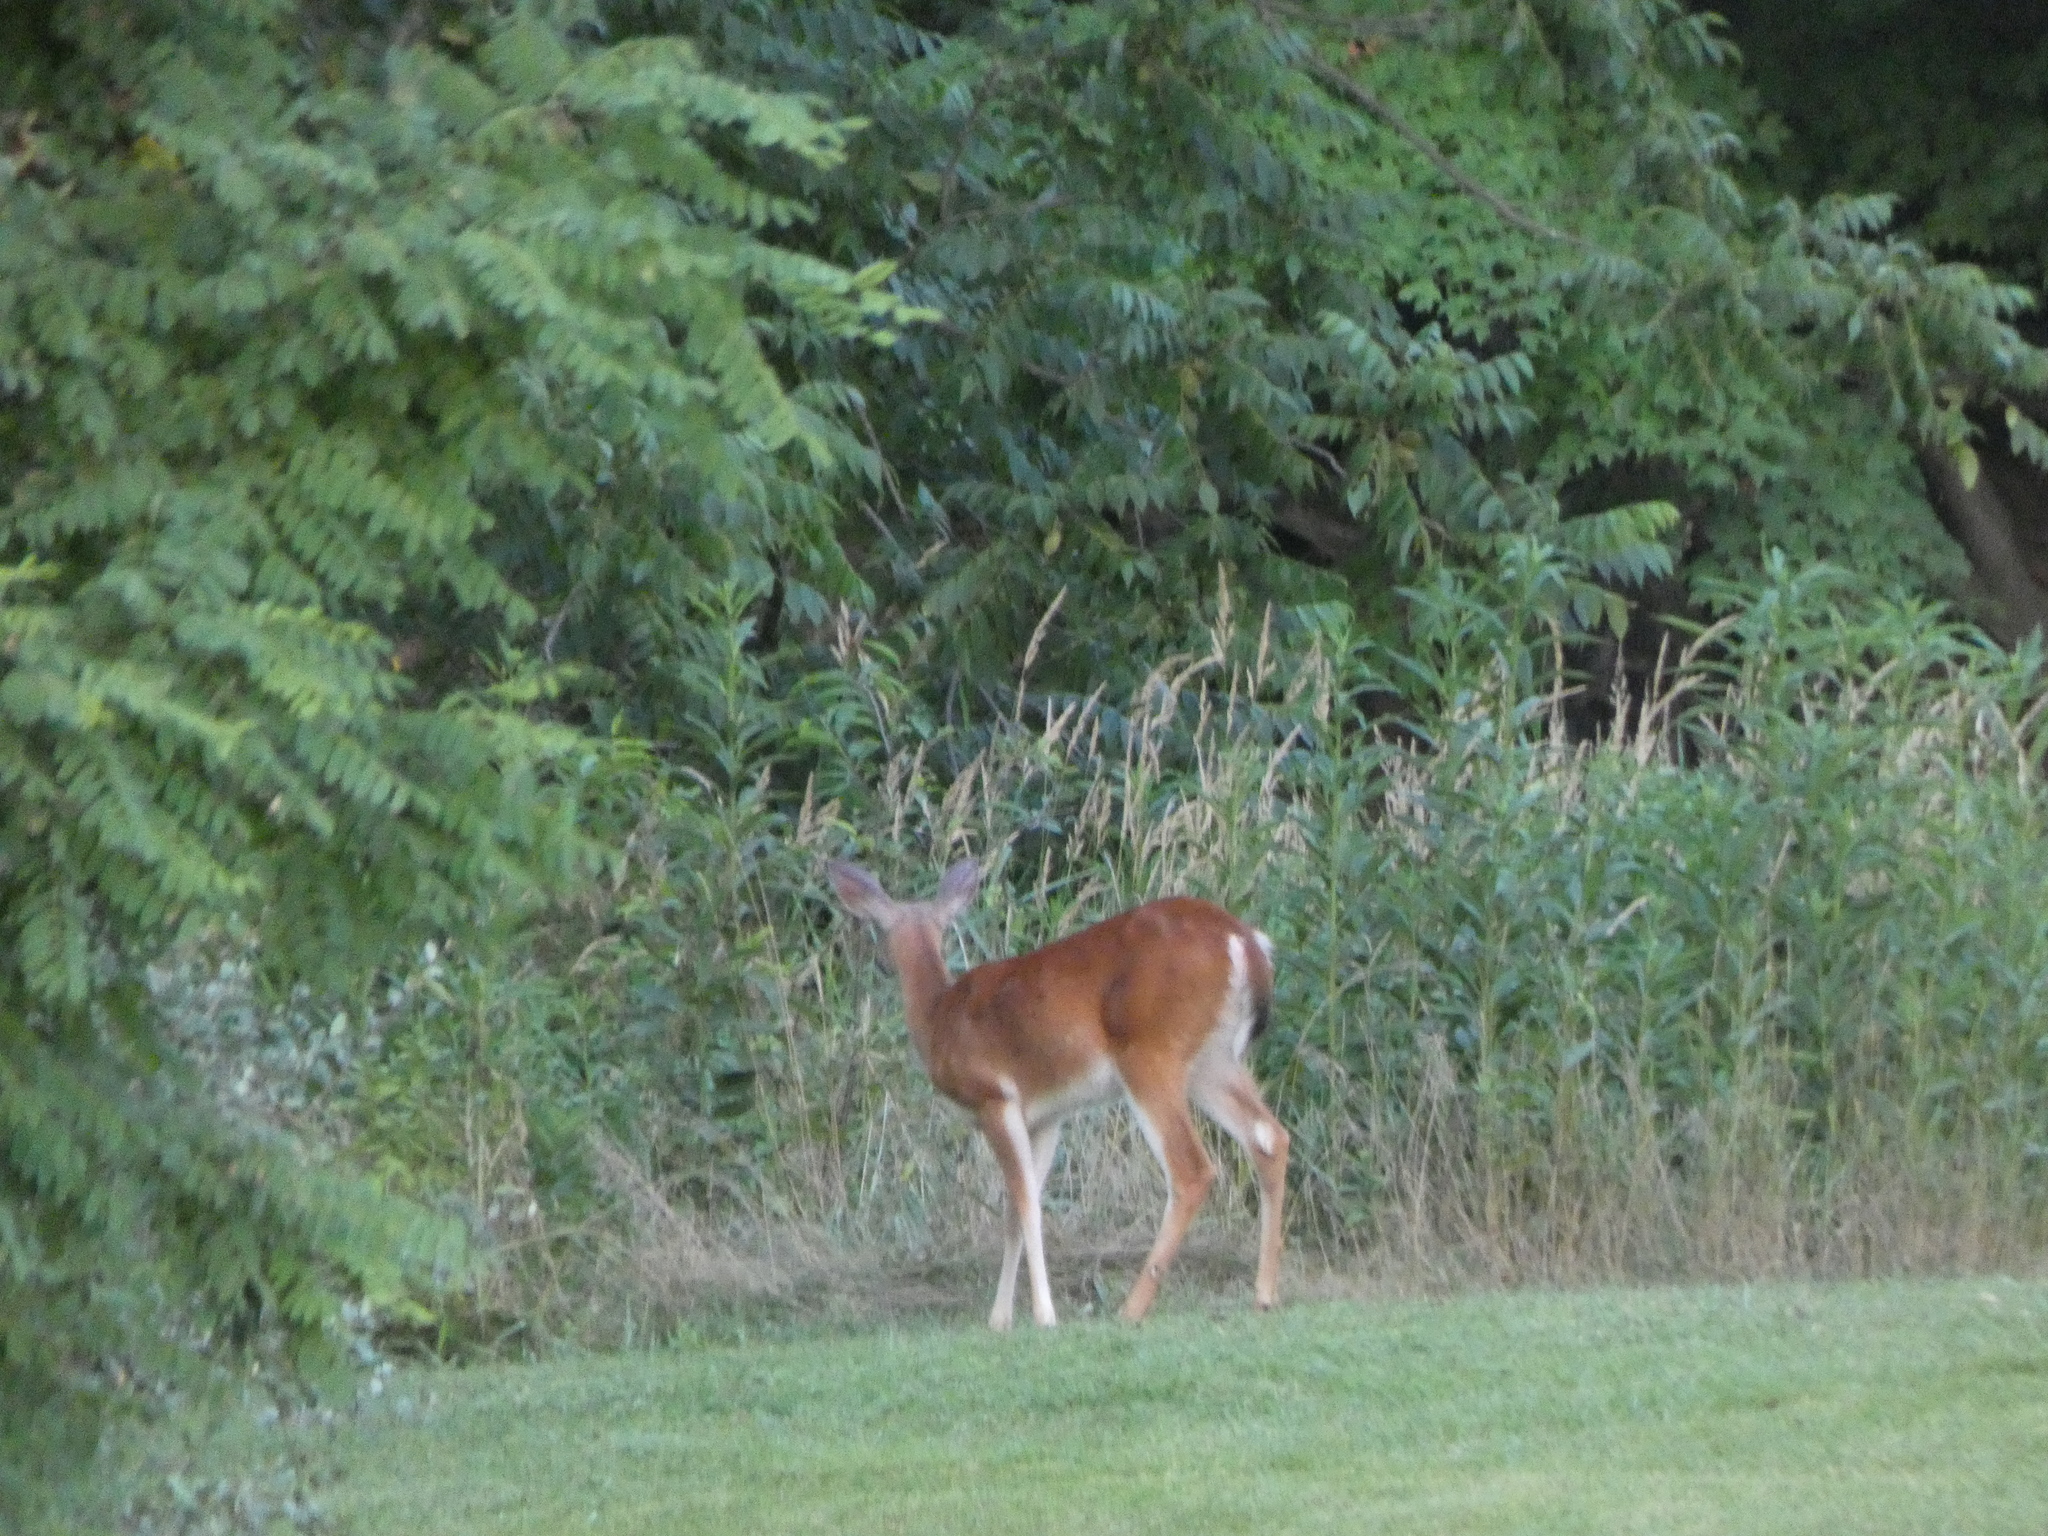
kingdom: Animalia
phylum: Chordata
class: Mammalia
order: Artiodactyla
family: Cervidae
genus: Odocoileus
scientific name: Odocoileus virginianus
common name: White-tailed deer
